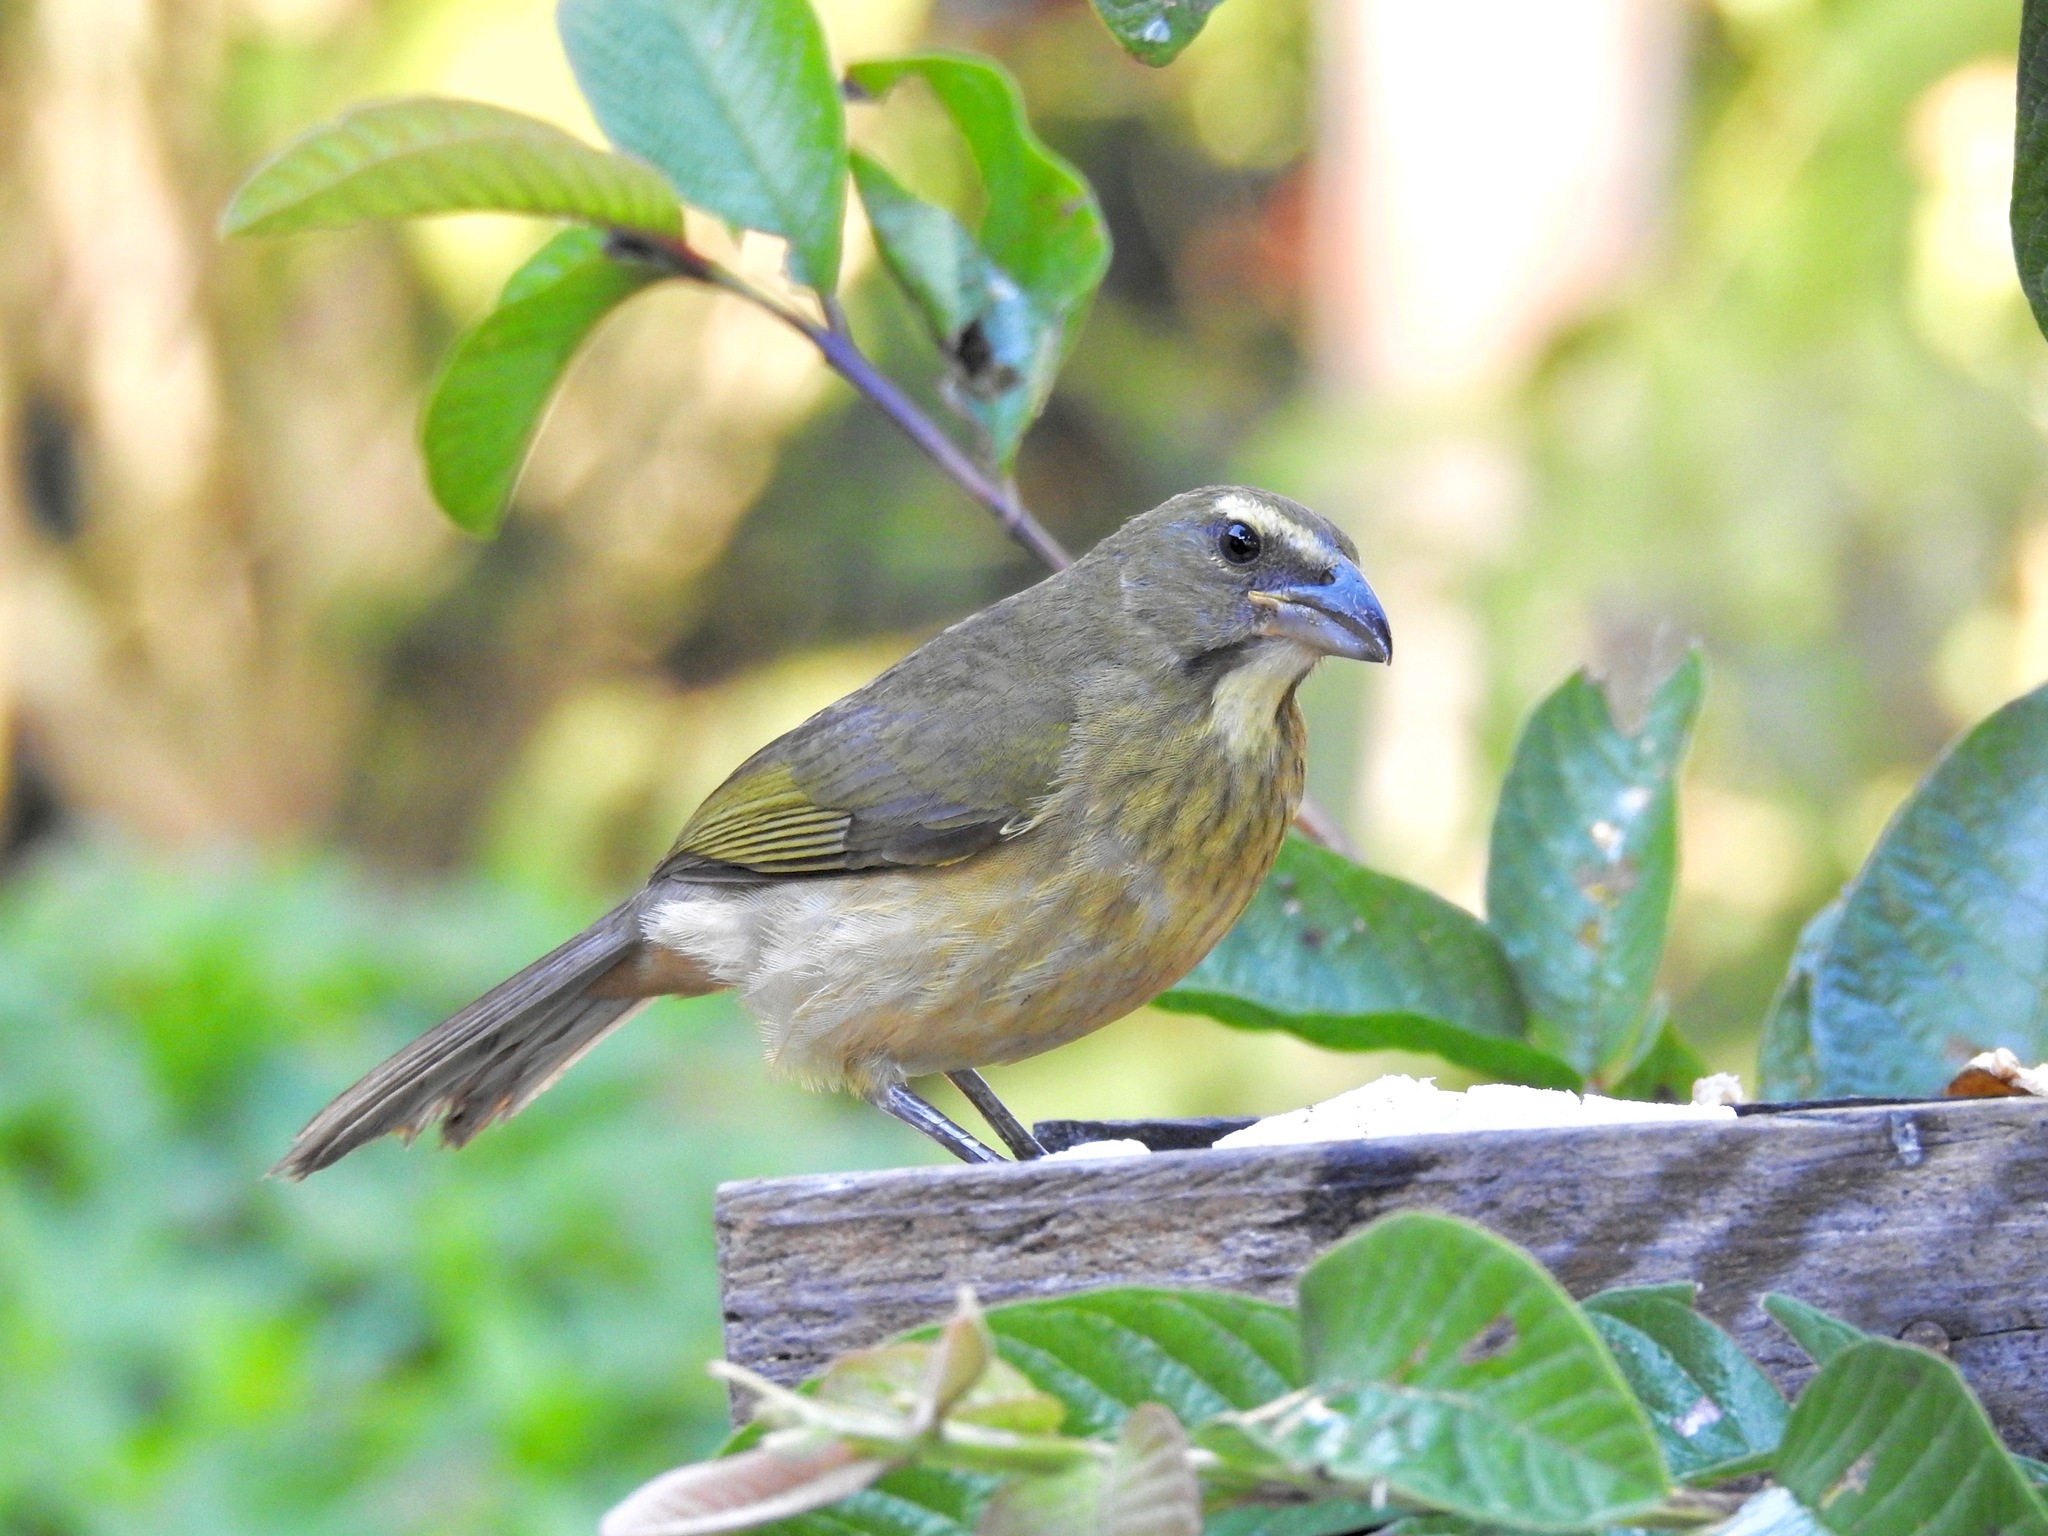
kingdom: Animalia
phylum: Chordata
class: Aves
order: Passeriformes
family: Thraupidae
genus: Saltator
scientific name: Saltator grandis
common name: Cinnamon-bellied saltator
